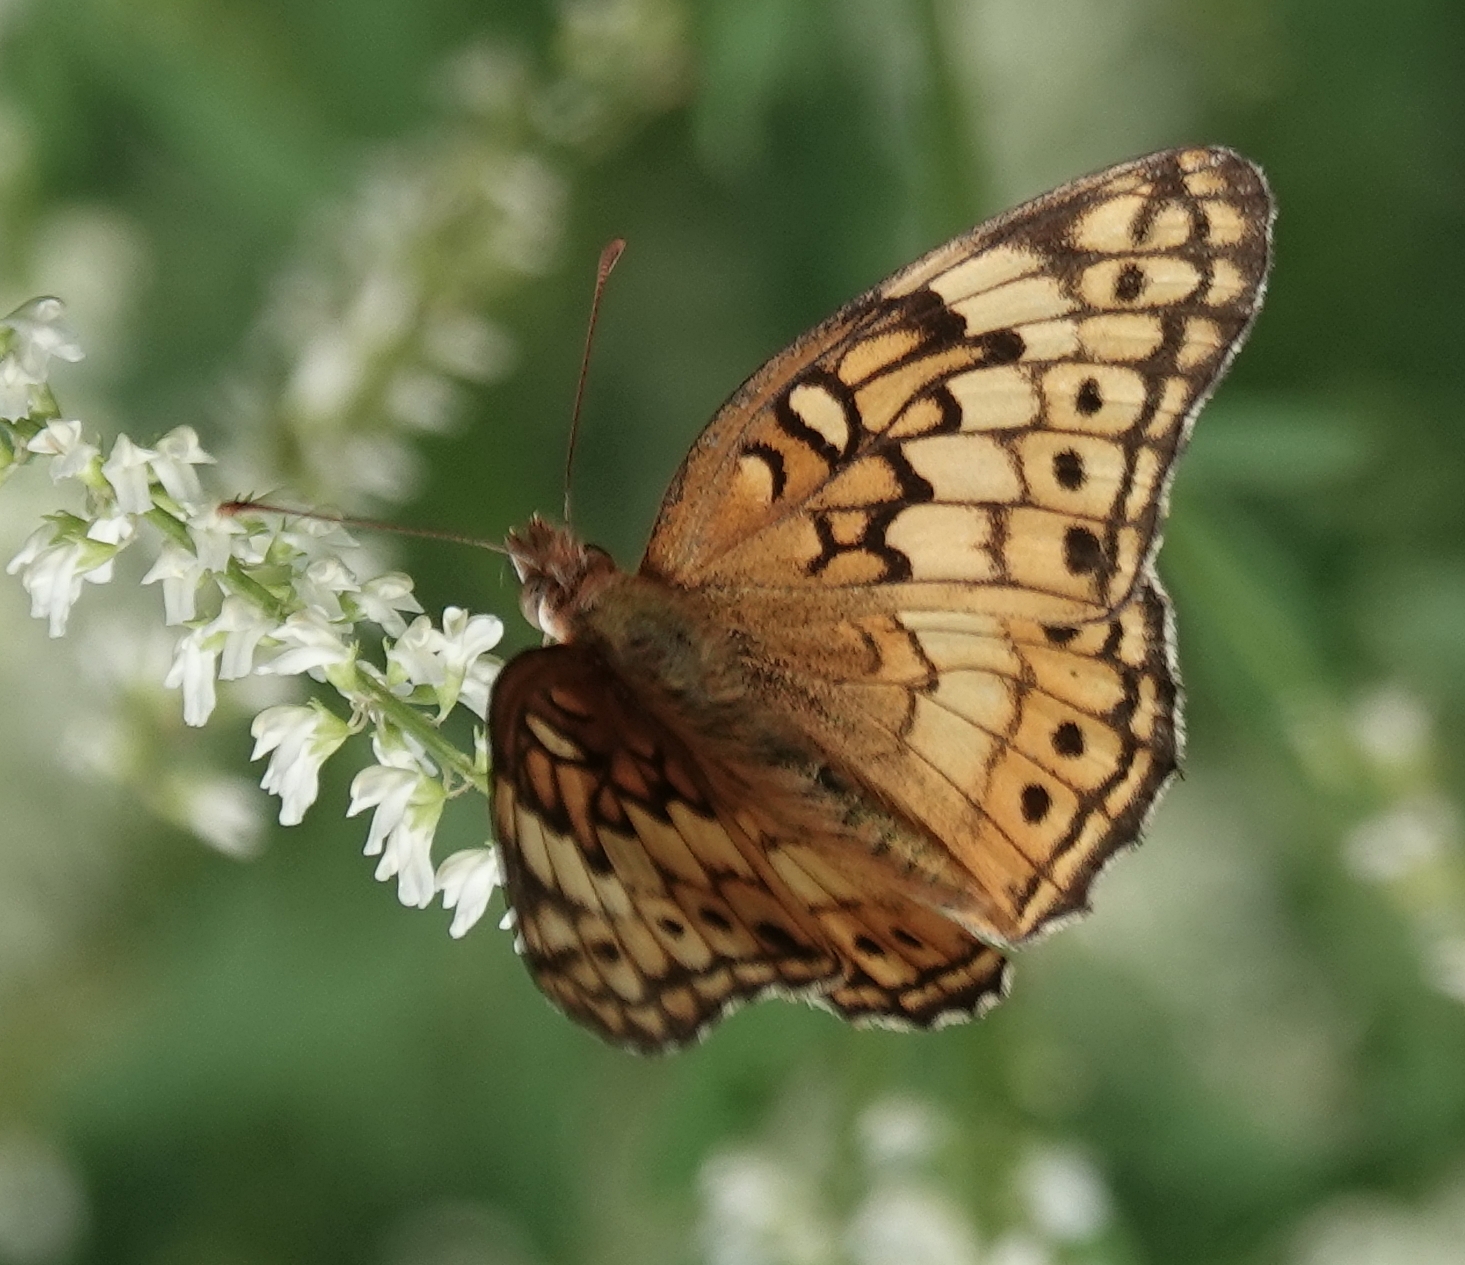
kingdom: Animalia
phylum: Arthropoda
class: Insecta
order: Lepidoptera
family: Nymphalidae
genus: Euptoieta
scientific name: Euptoieta claudia
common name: Variegated fritillary
